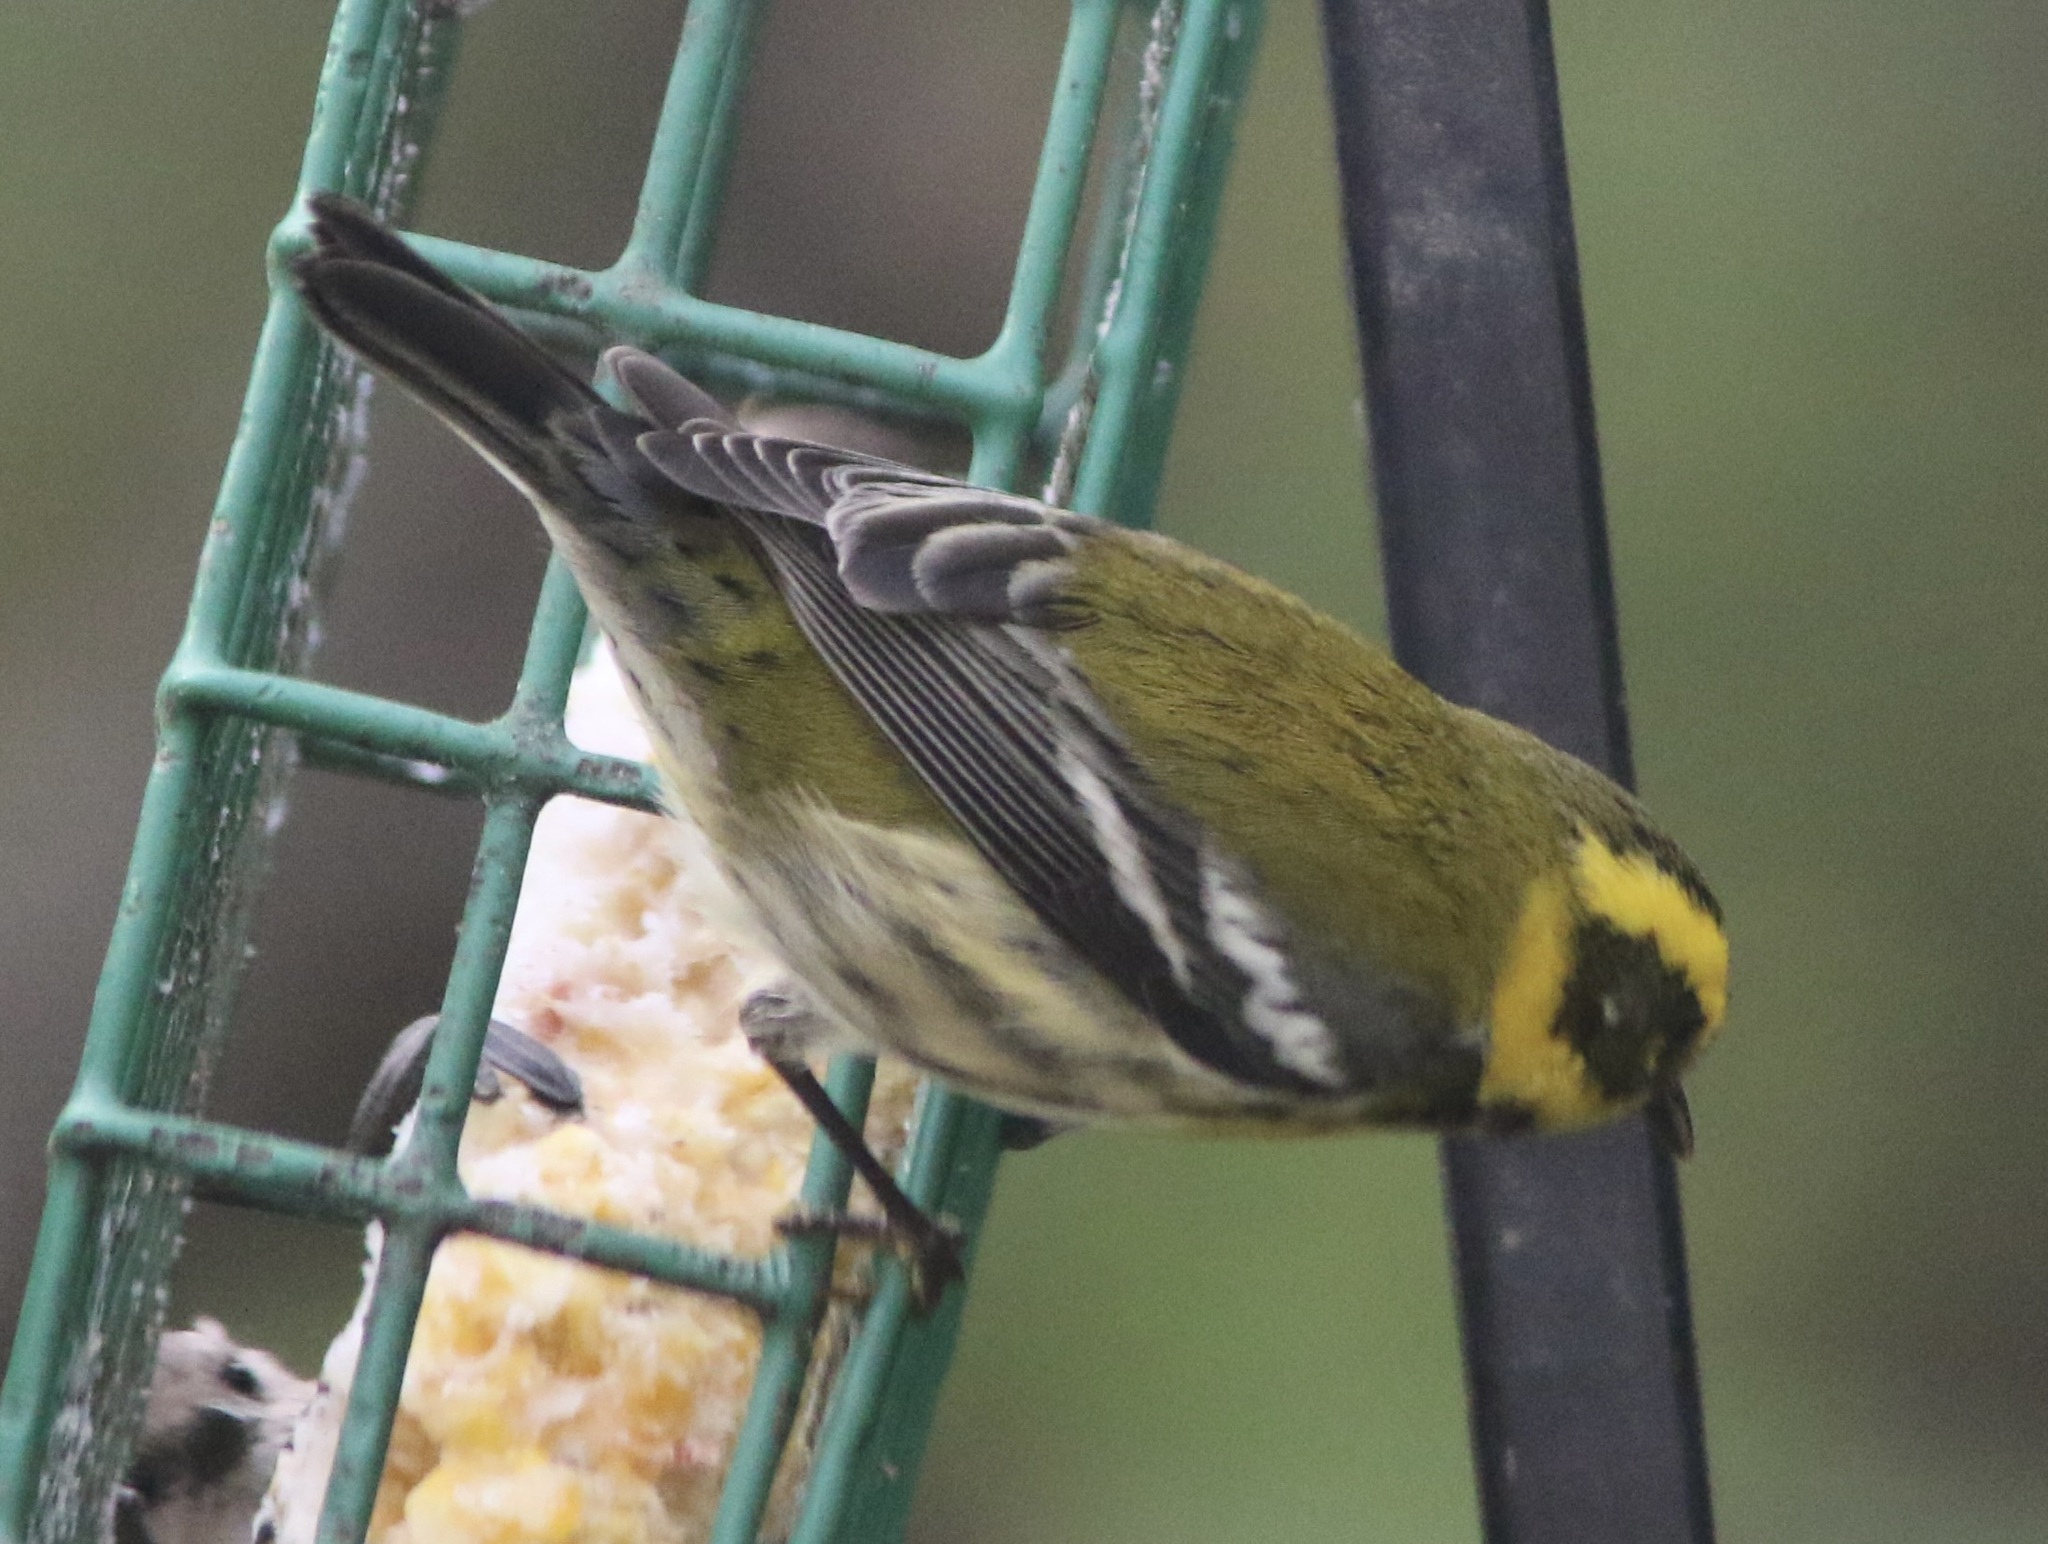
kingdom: Animalia
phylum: Chordata
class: Aves
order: Passeriformes
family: Parulidae
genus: Setophaga
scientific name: Setophaga townsendi
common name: Townsend's warbler
